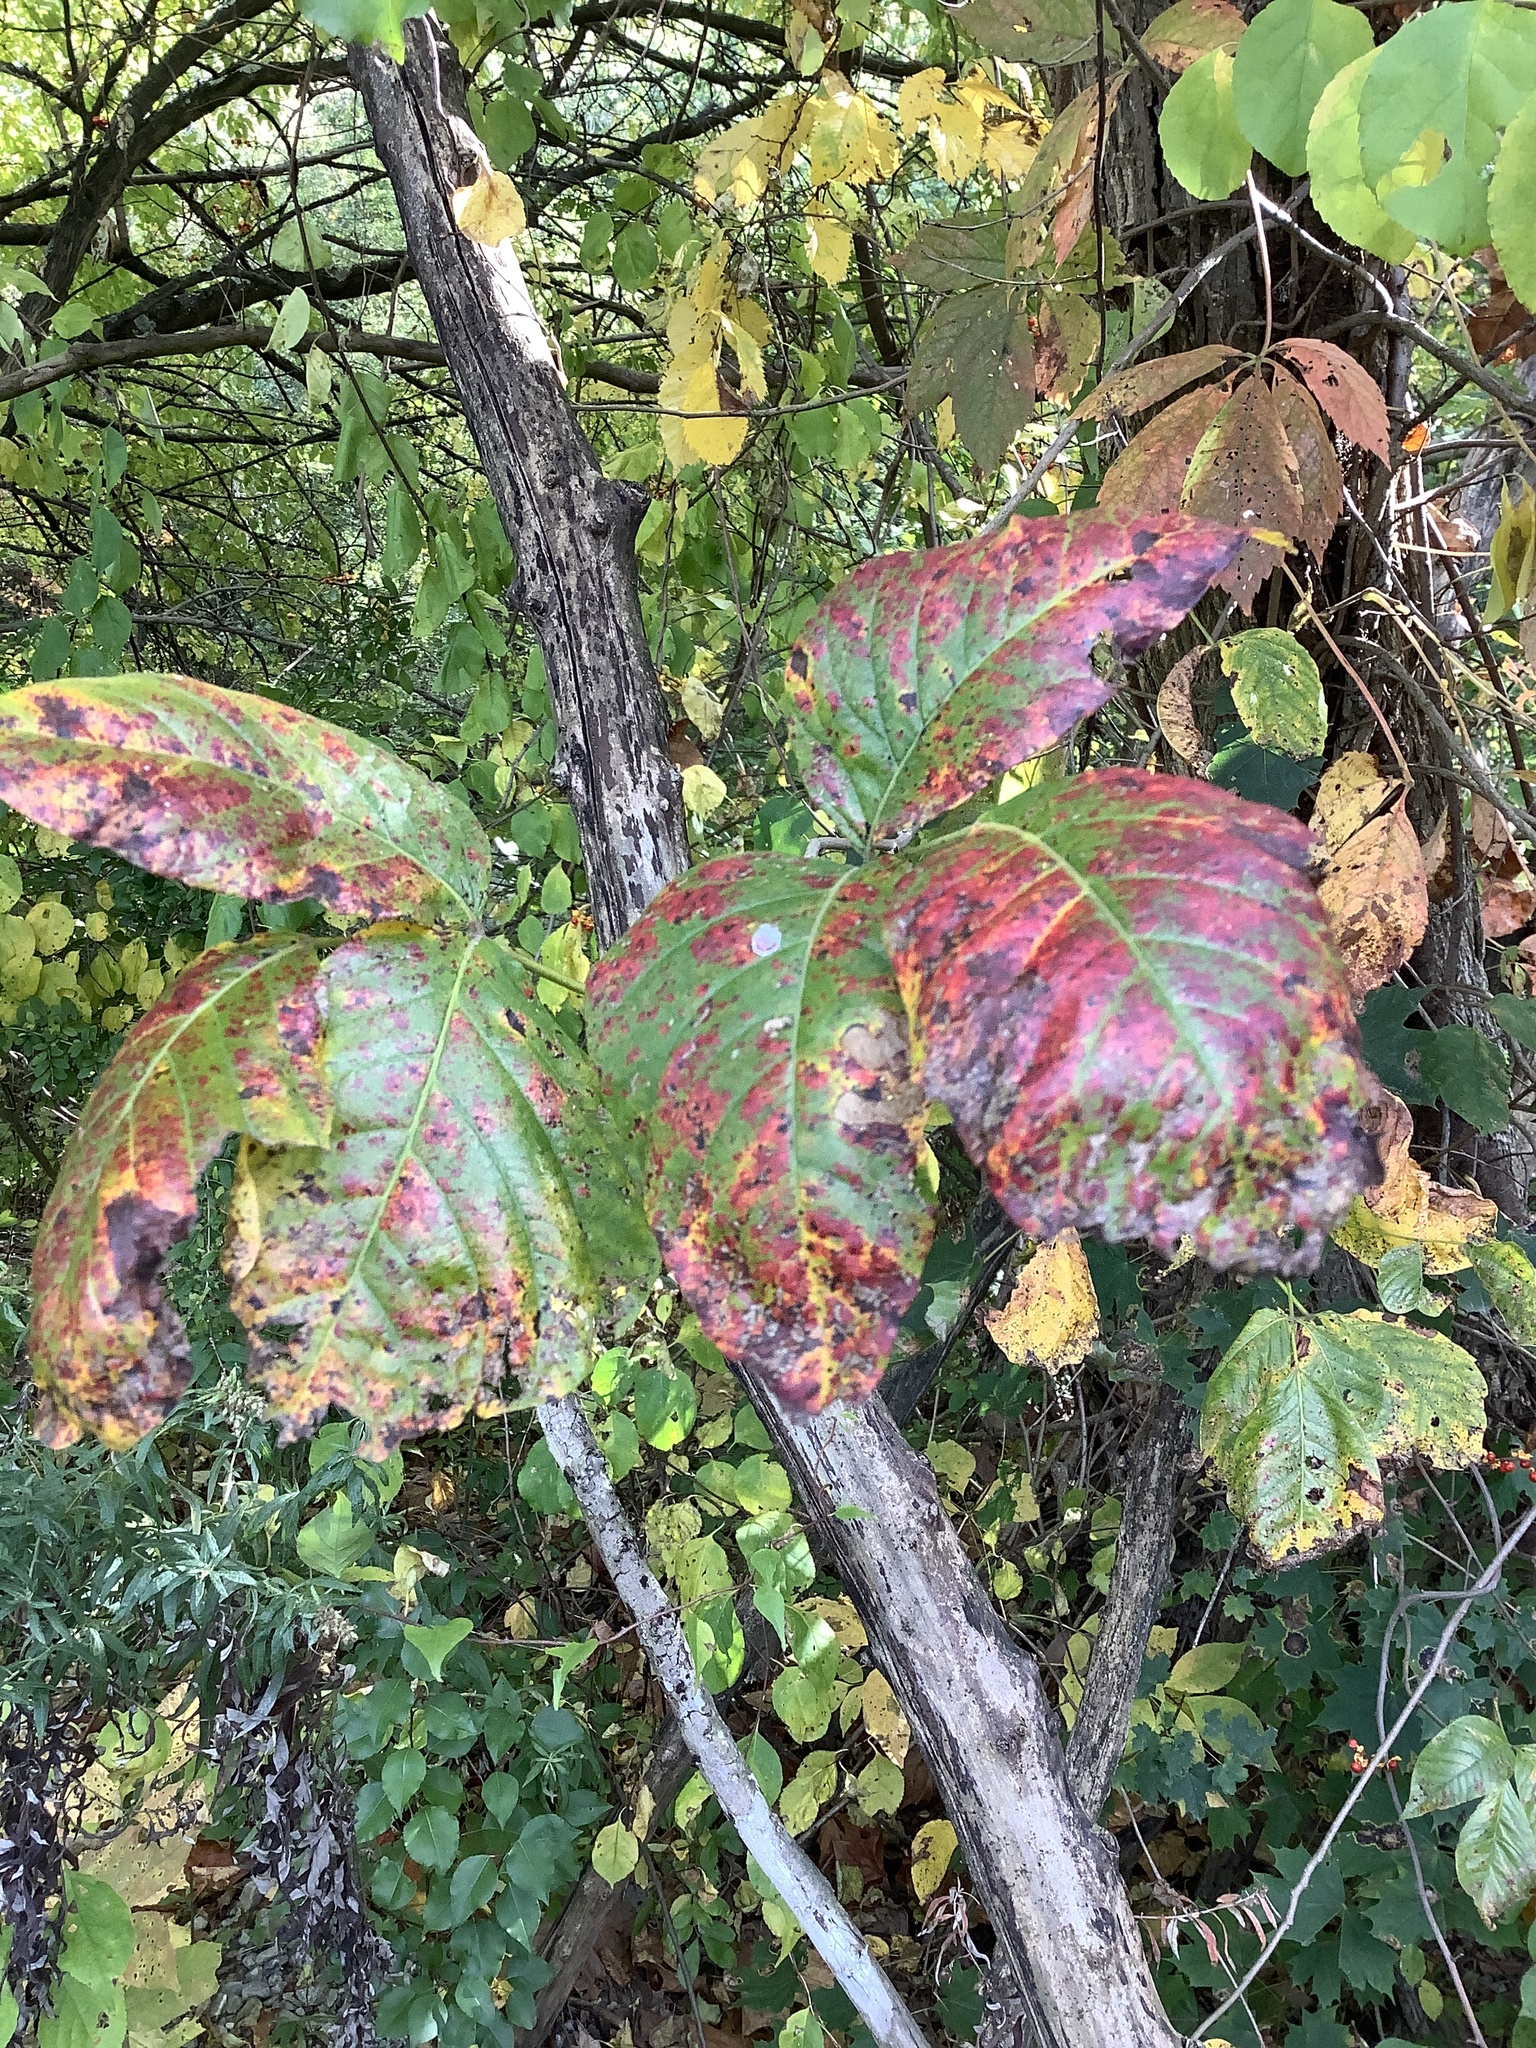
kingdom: Plantae
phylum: Tracheophyta
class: Magnoliopsida
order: Sapindales
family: Anacardiaceae
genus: Toxicodendron
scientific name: Toxicodendron radicans
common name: Poison ivy
